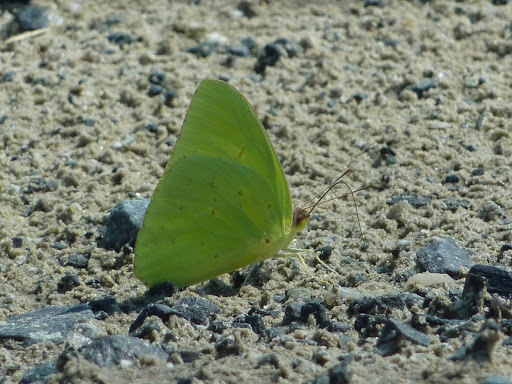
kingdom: Animalia
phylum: Arthropoda
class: Insecta
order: Lepidoptera
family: Pieridae
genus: Phoebis
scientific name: Phoebis sennae
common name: Cloudless sulphur
